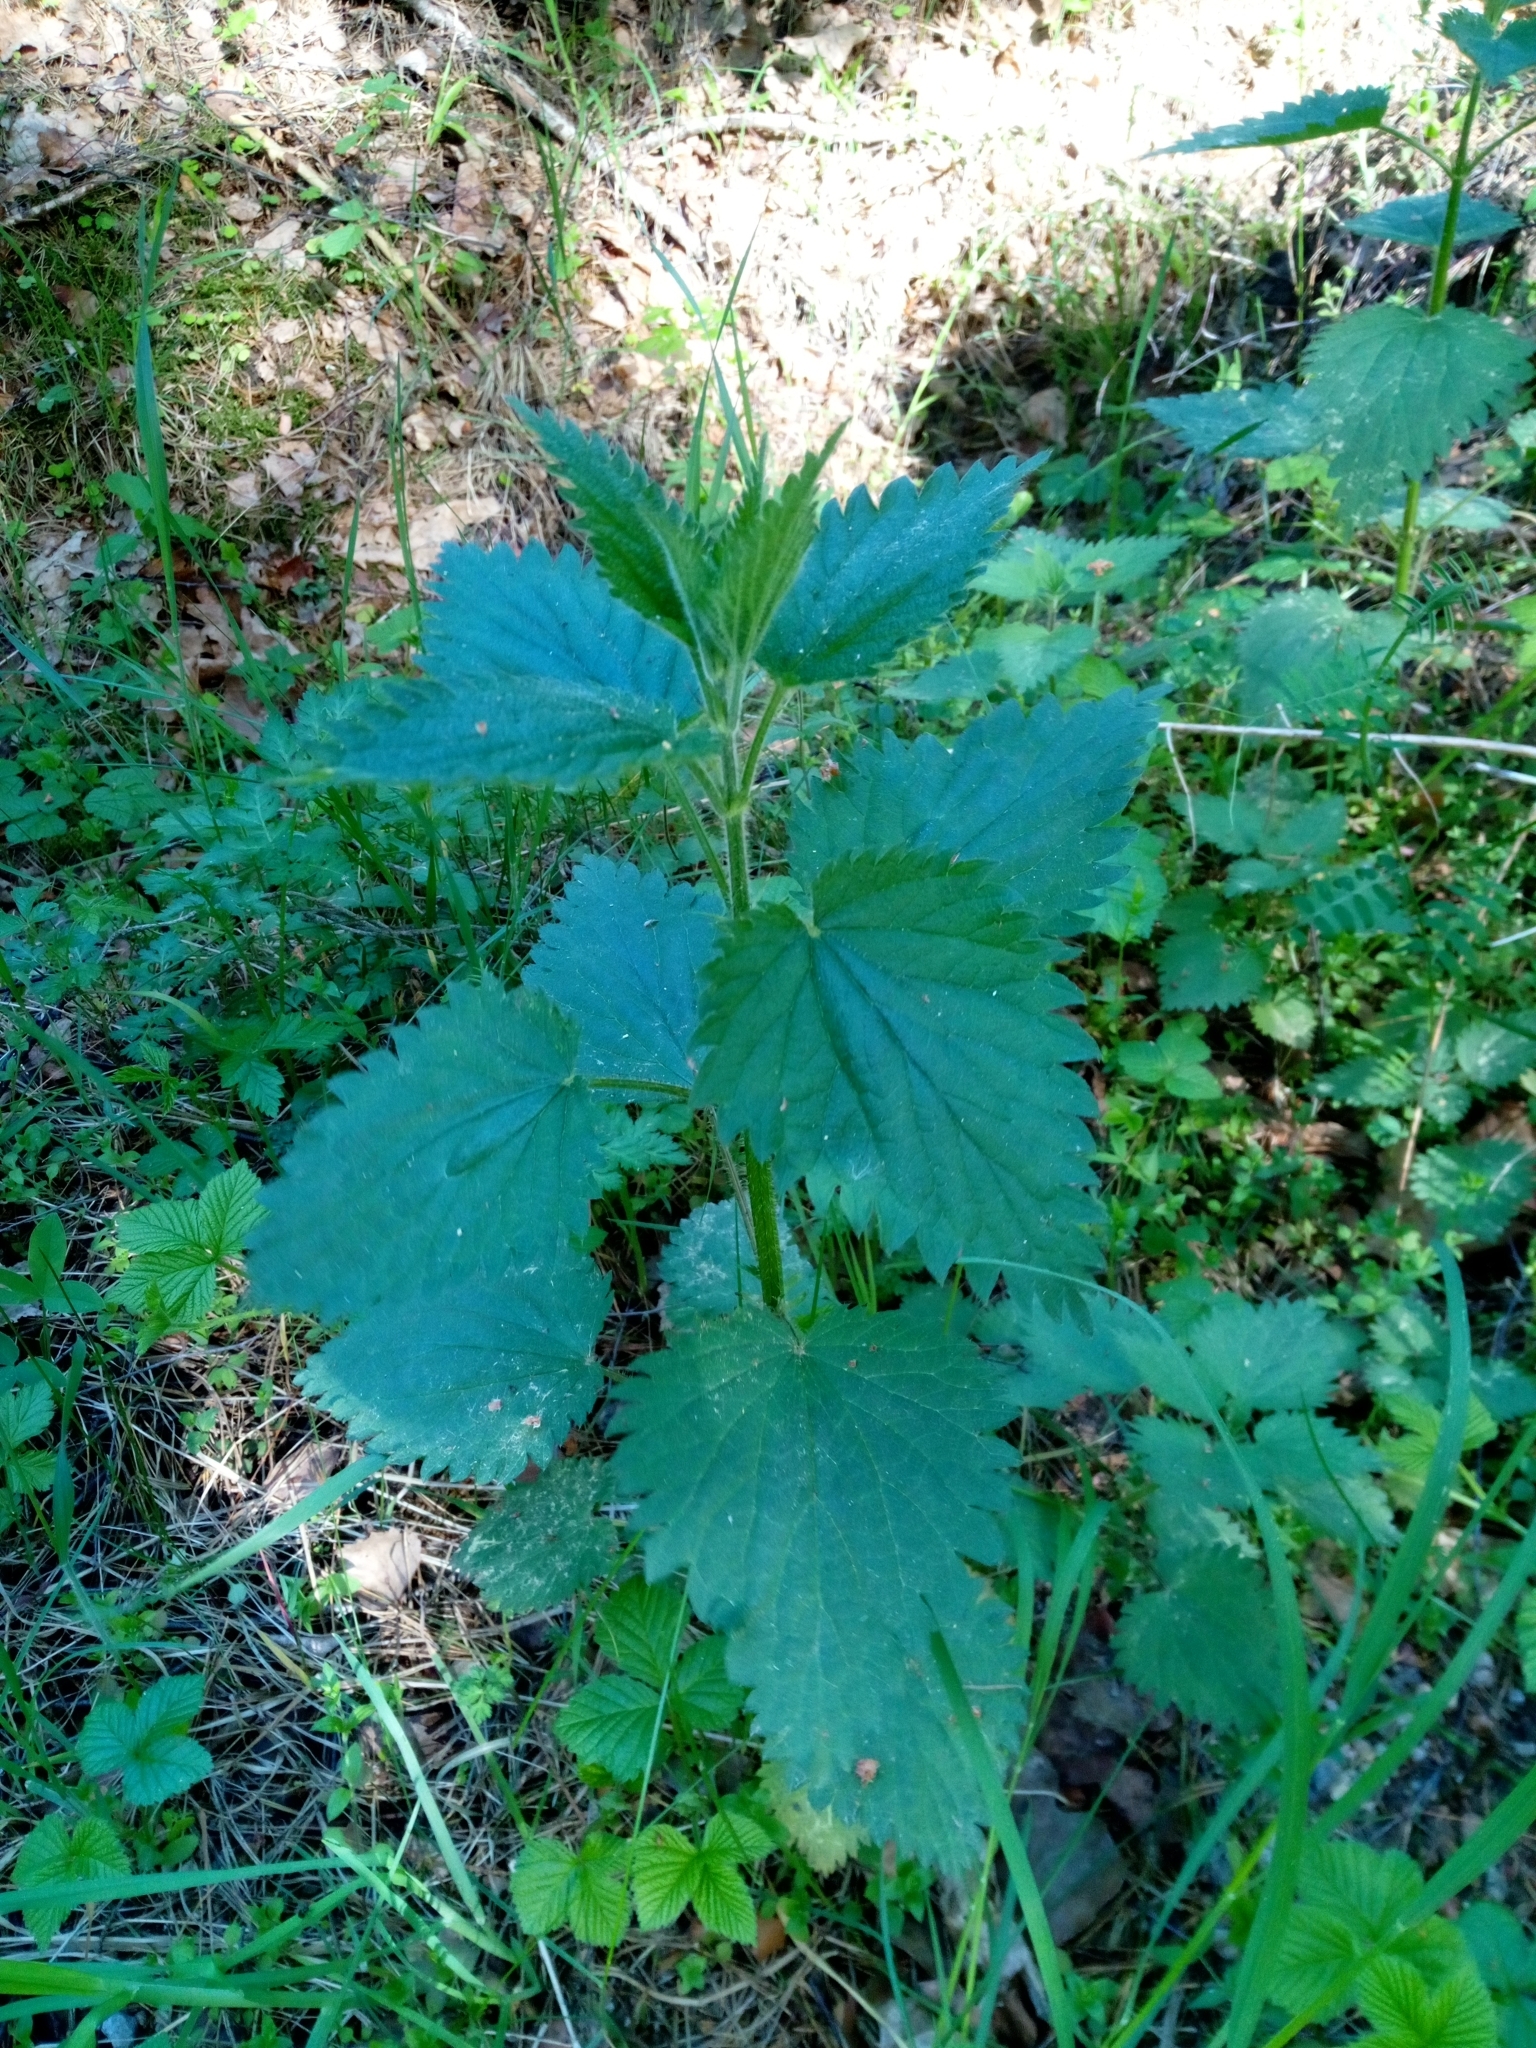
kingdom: Plantae
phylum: Tracheophyta
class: Magnoliopsida
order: Rosales
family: Urticaceae
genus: Urtica
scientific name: Urtica dioica
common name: Common nettle
